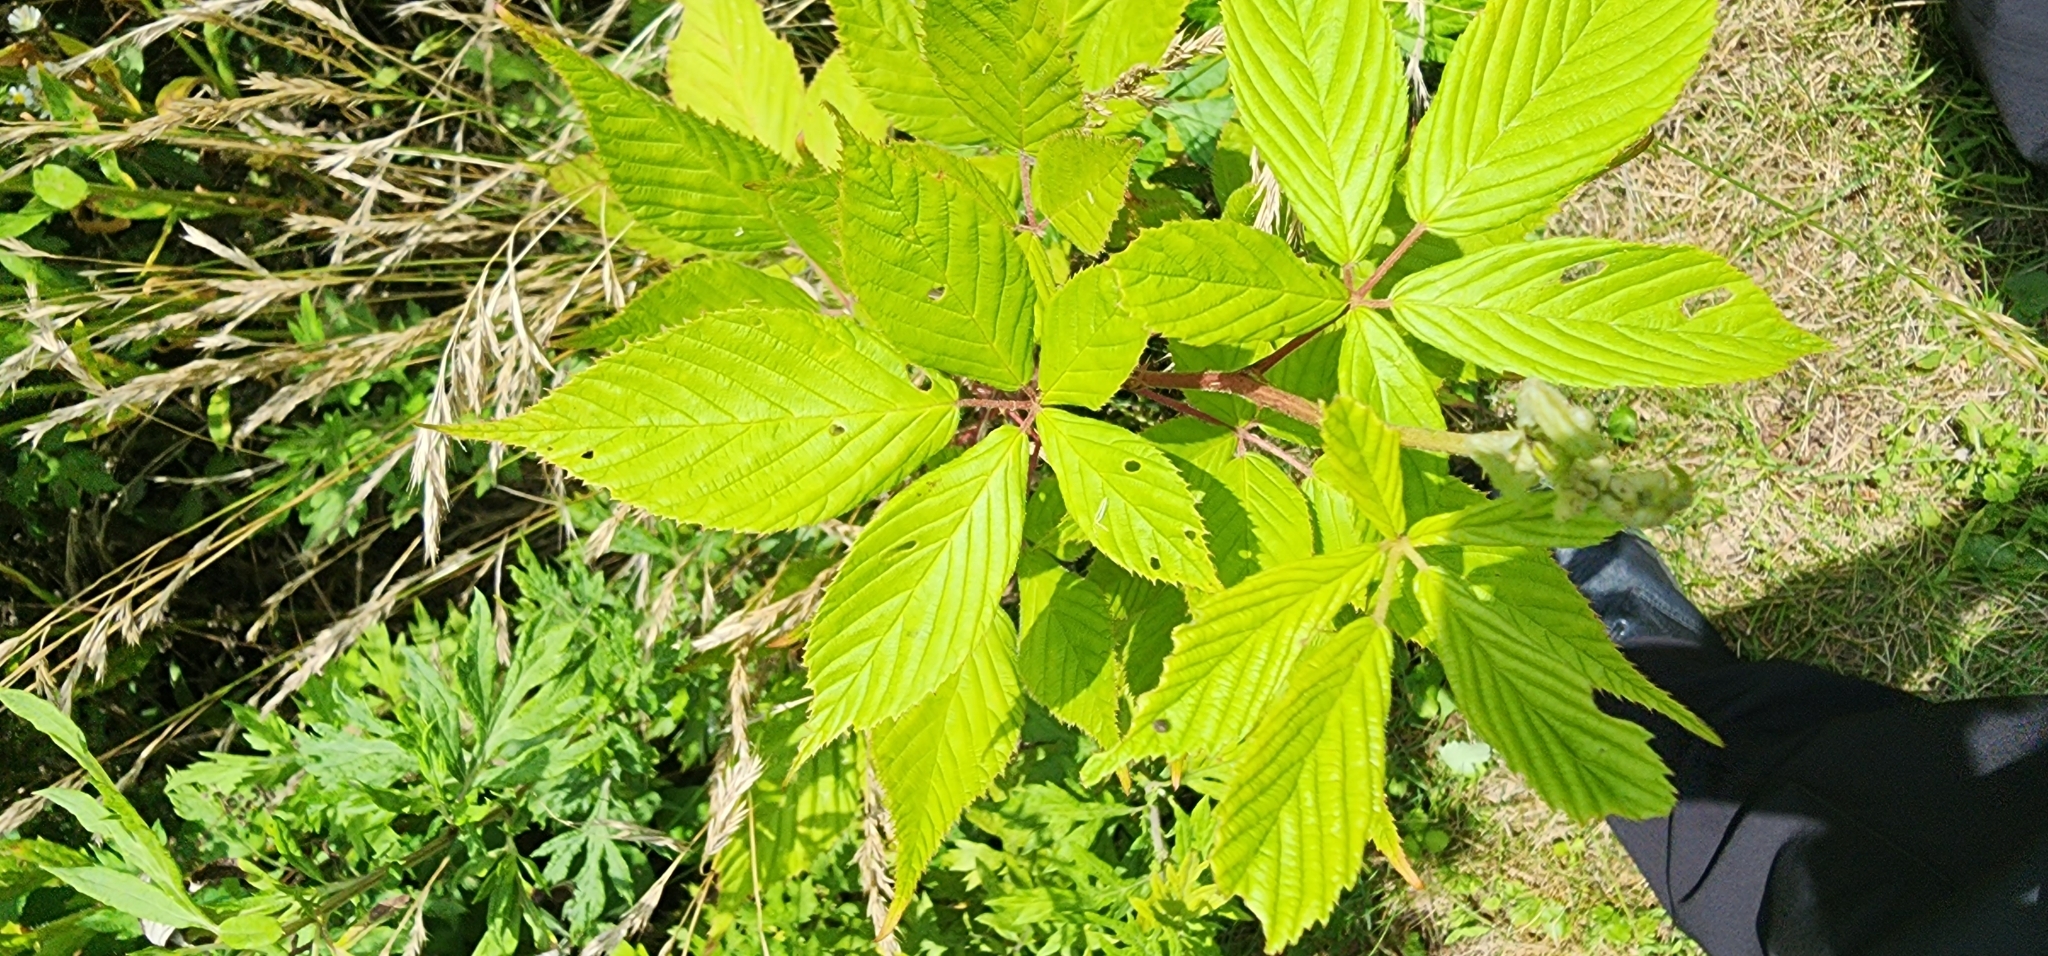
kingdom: Plantae
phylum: Tracheophyta
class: Magnoliopsida
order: Rosales
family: Rosaceae
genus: Rubus
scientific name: Rubus allegheniensis
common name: Allegheny blackberry
